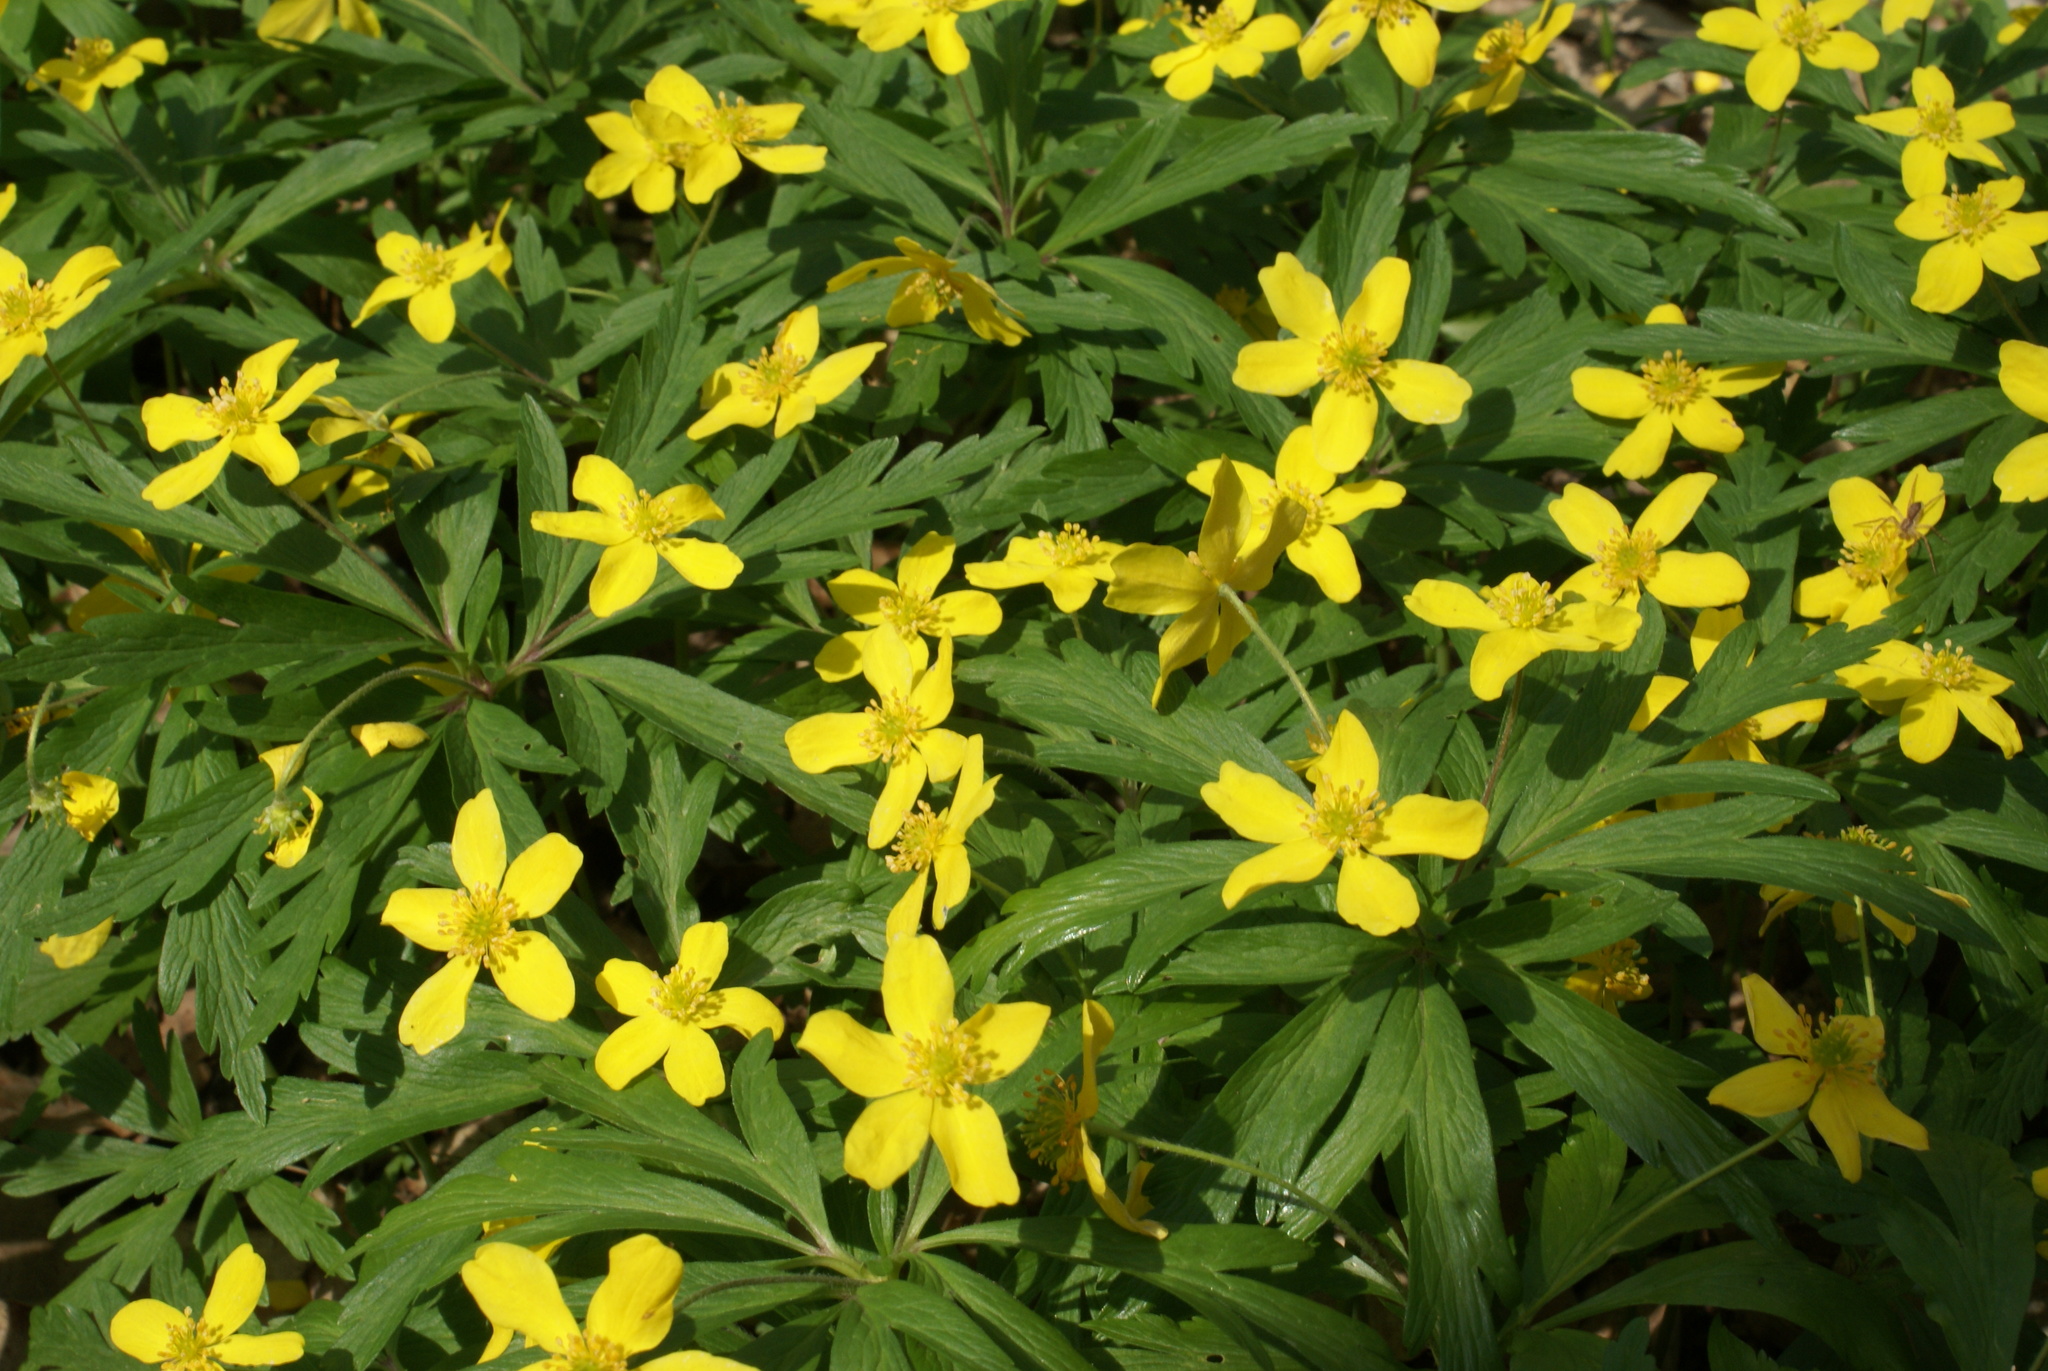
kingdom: Plantae
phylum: Tracheophyta
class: Magnoliopsida
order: Ranunculales
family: Ranunculaceae
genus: Anemone
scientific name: Anemone ranunculoides
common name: Yellow anemone
